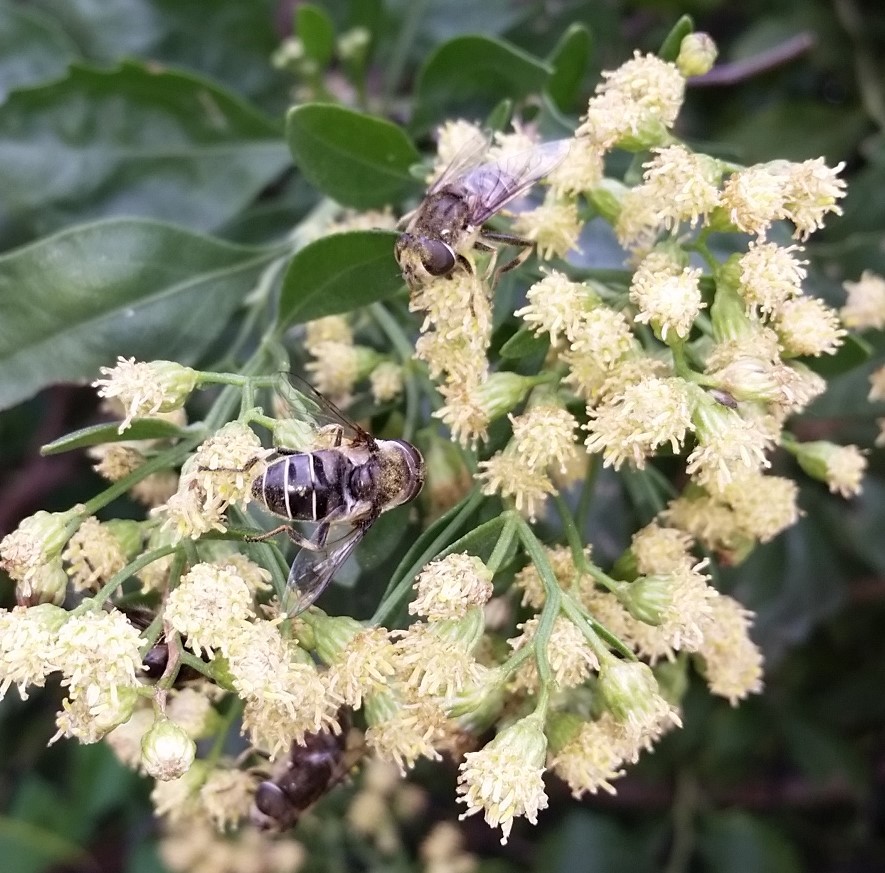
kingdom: Animalia
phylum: Arthropoda
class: Insecta
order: Diptera
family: Syrphidae
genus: Eristalis
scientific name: Eristalis dimidiata
